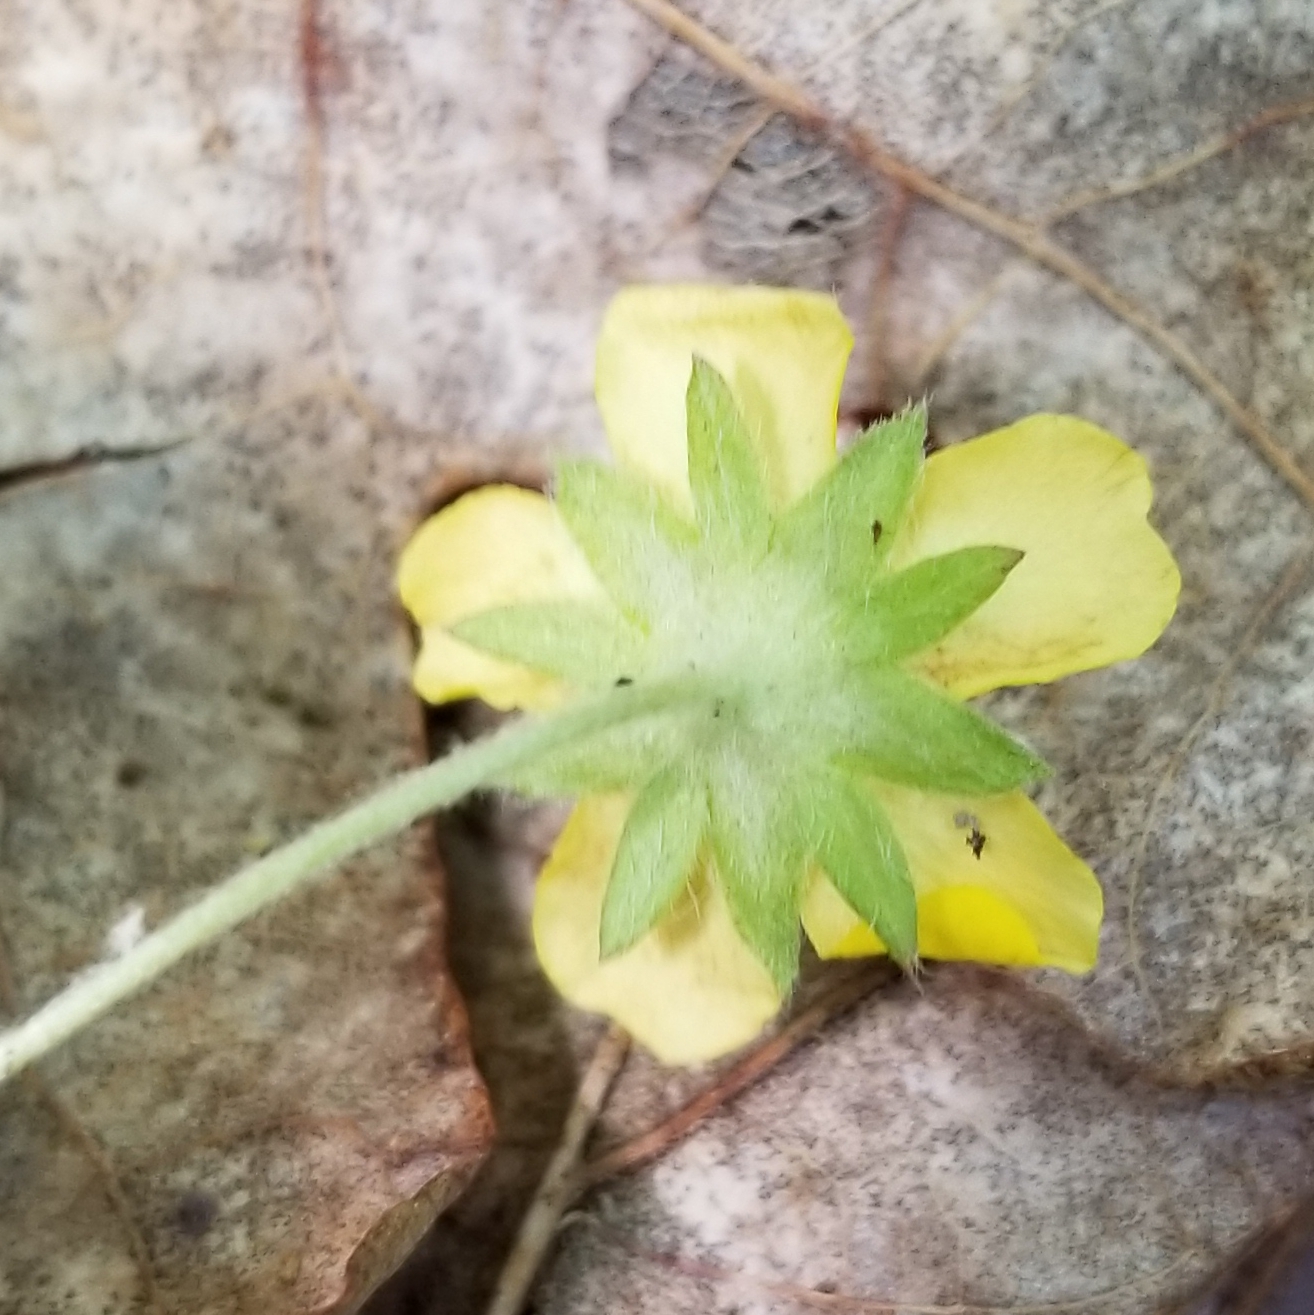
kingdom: Plantae
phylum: Tracheophyta
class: Magnoliopsida
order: Rosales
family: Rosaceae
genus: Potentilla
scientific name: Potentilla simplex
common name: Old field cinquefoil
